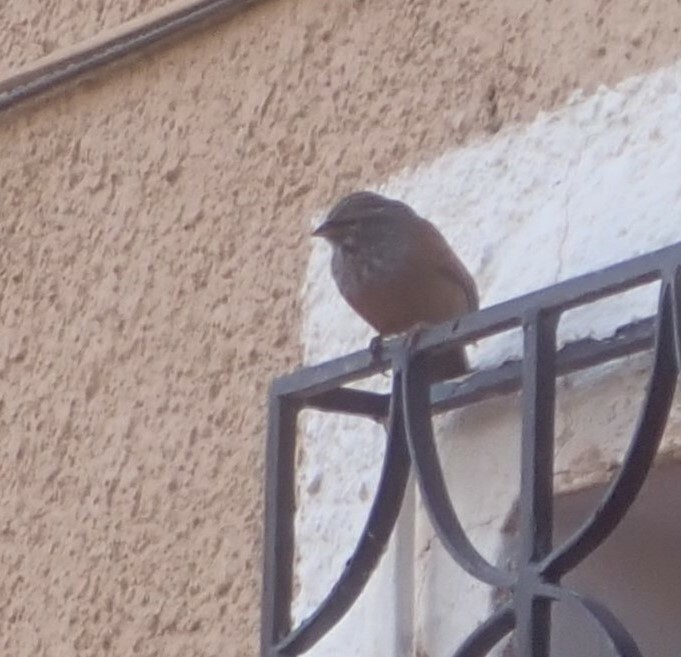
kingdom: Animalia
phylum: Chordata
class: Aves
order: Passeriformes
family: Emberizidae
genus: Emberiza
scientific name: Emberiza sahari
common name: House bunting
